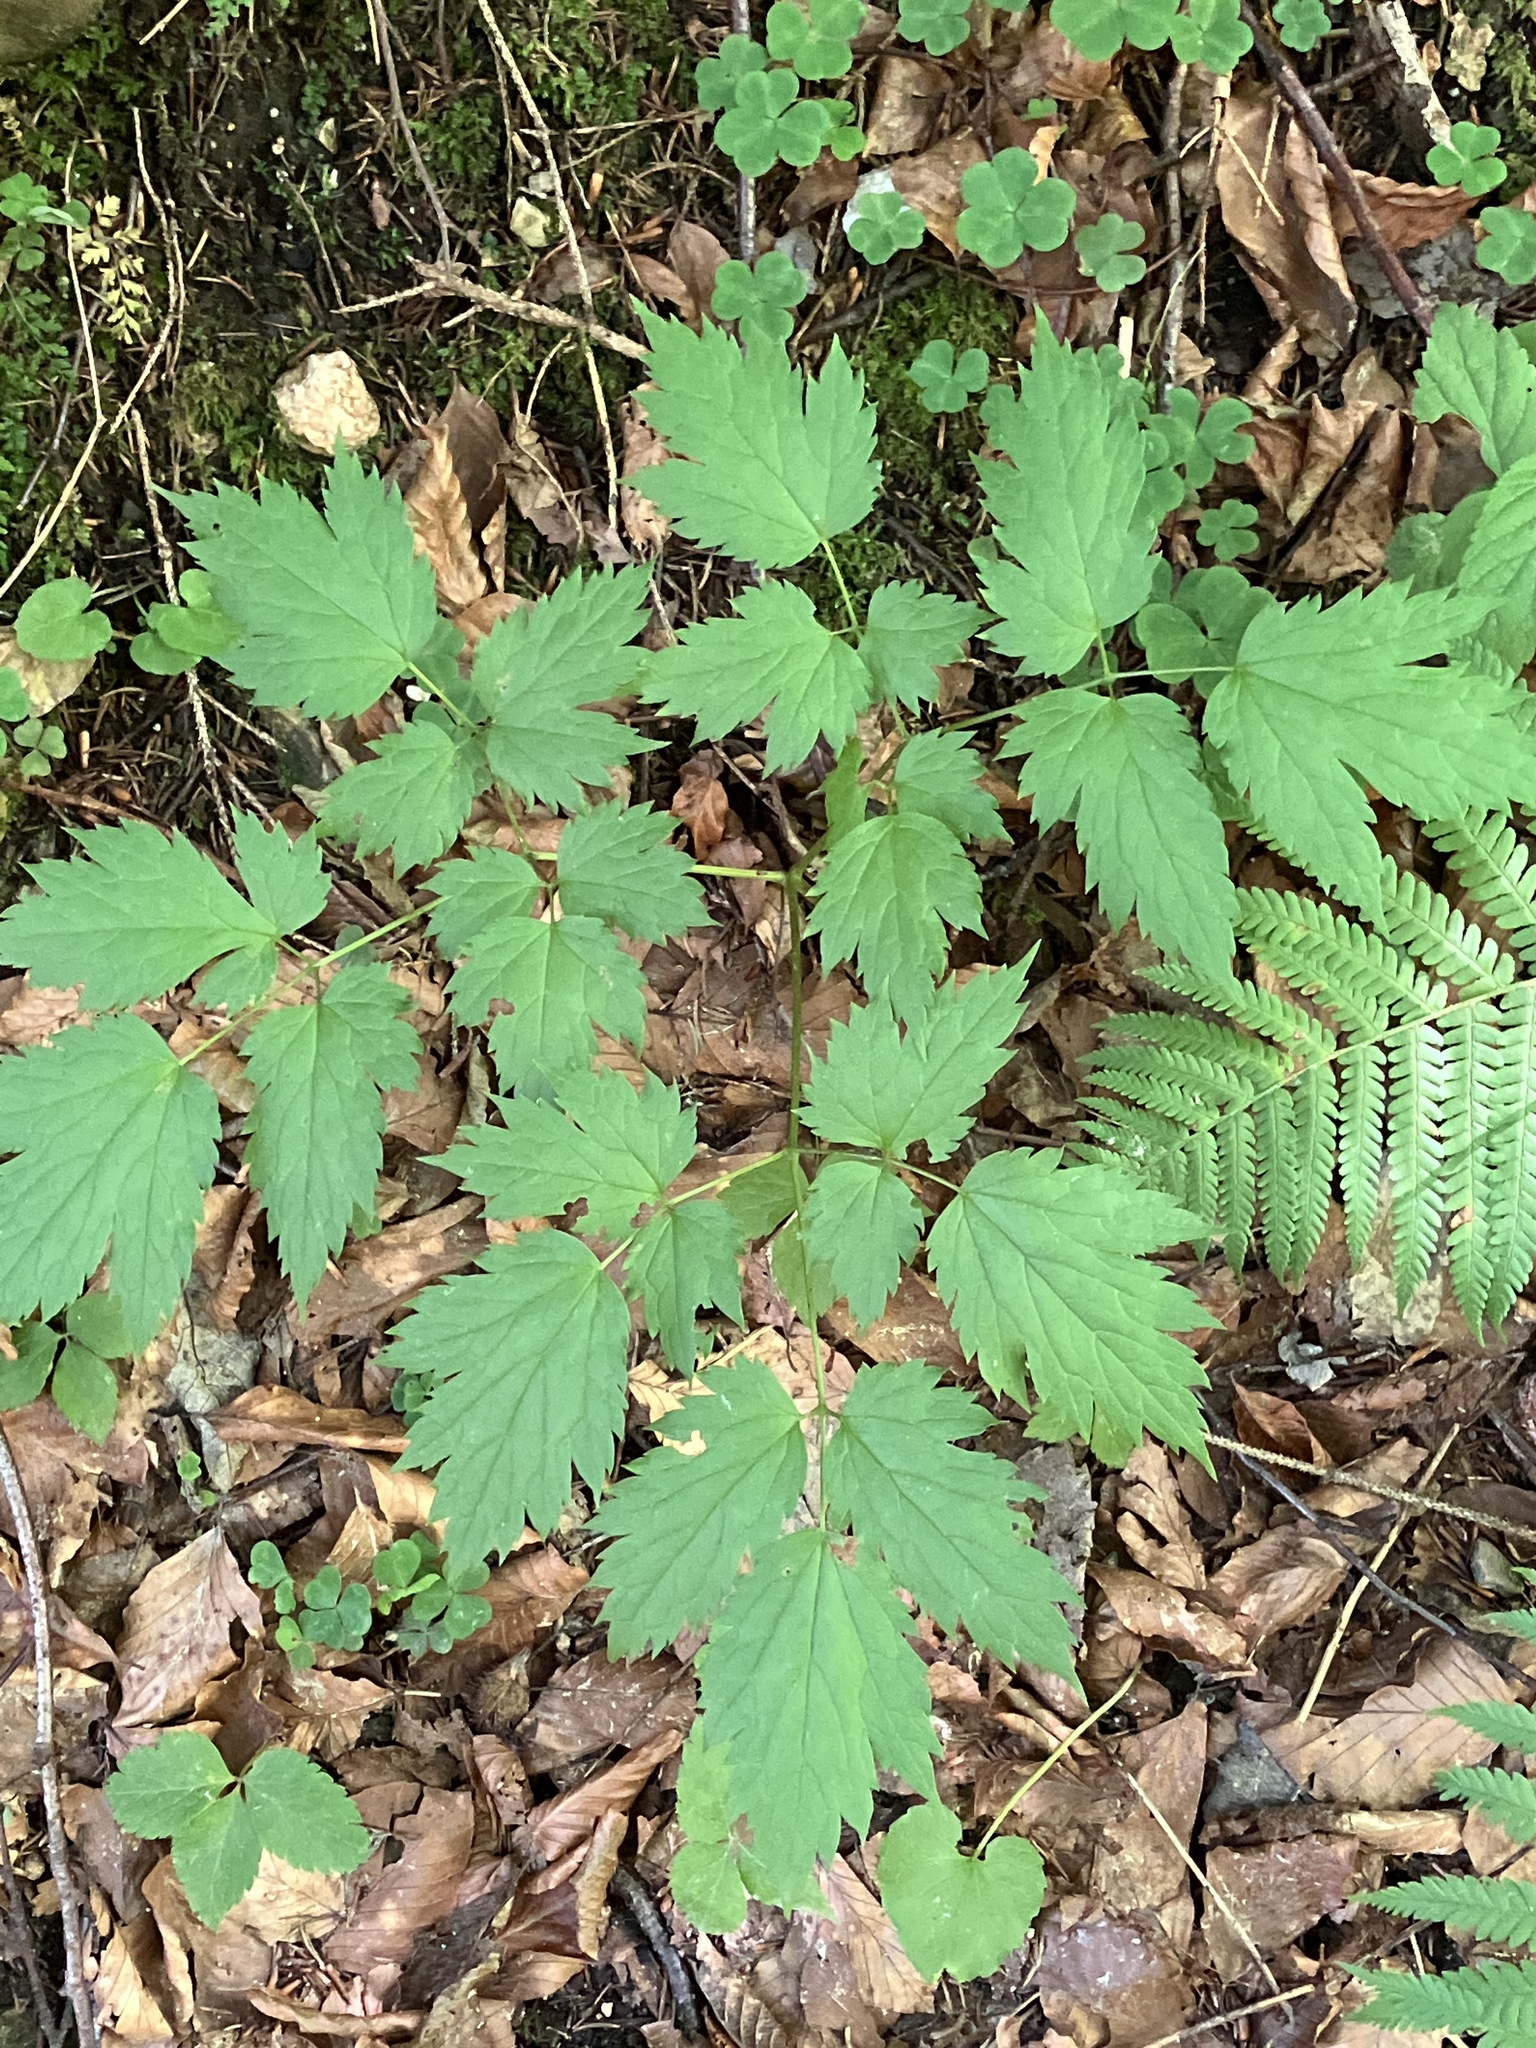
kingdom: Plantae
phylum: Tracheophyta
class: Magnoliopsida
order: Ranunculales
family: Ranunculaceae
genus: Actaea
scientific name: Actaea spicata
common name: Baneberry
